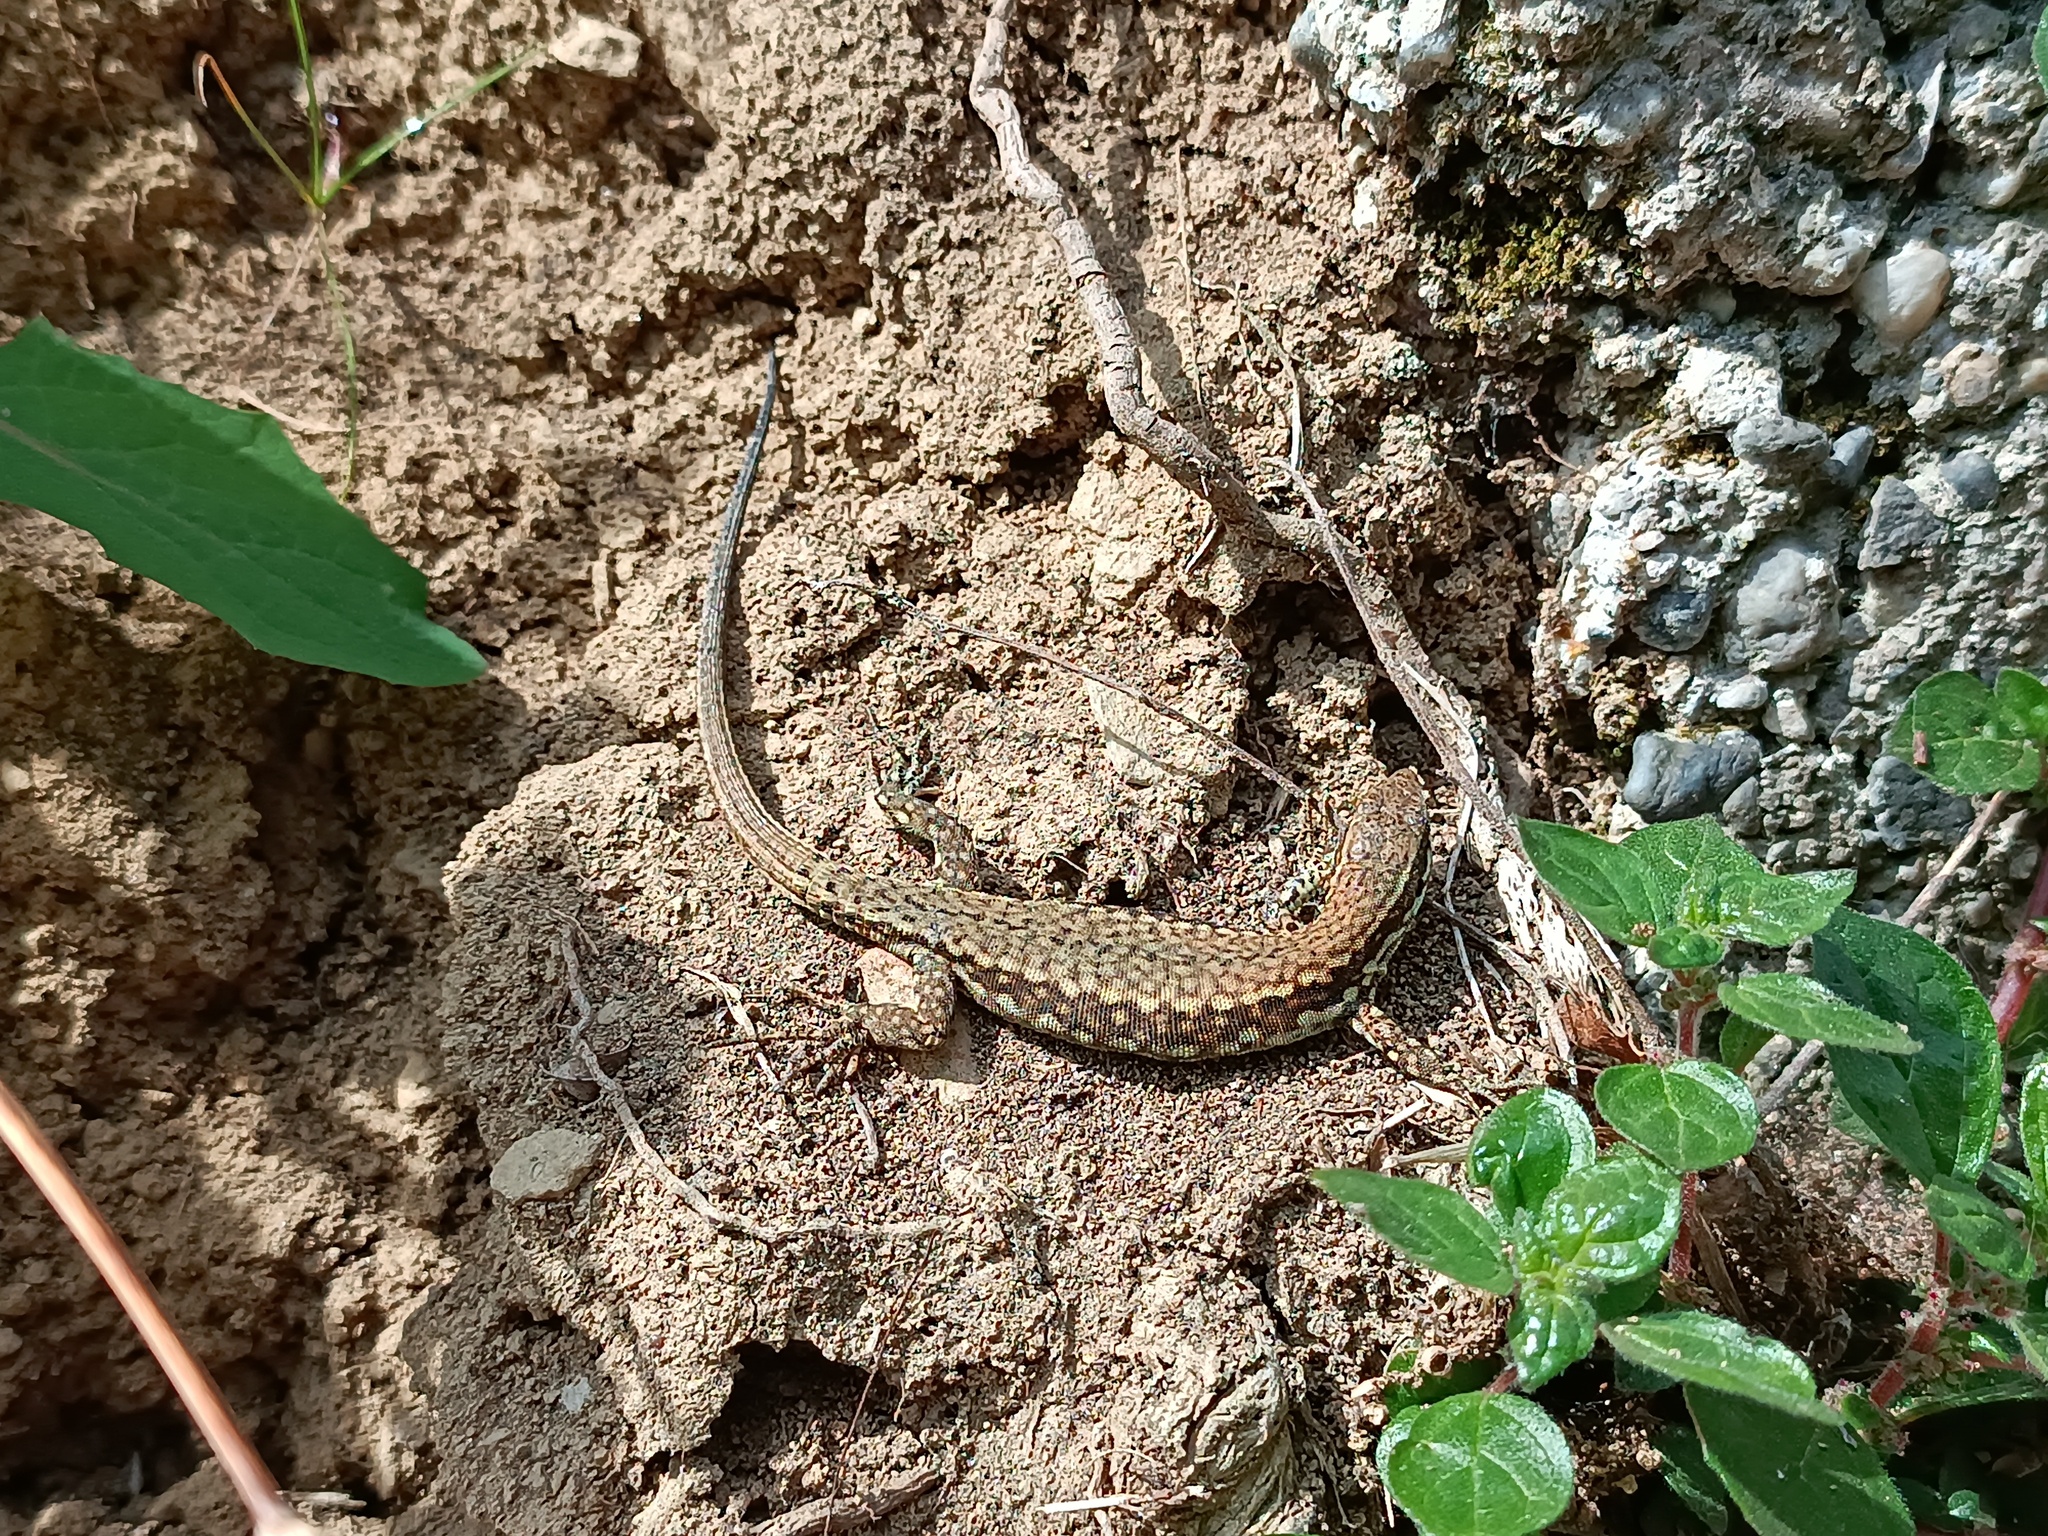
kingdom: Animalia
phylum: Chordata
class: Squamata
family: Lacertidae
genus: Podarcis
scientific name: Podarcis muralis
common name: Common wall lizard
